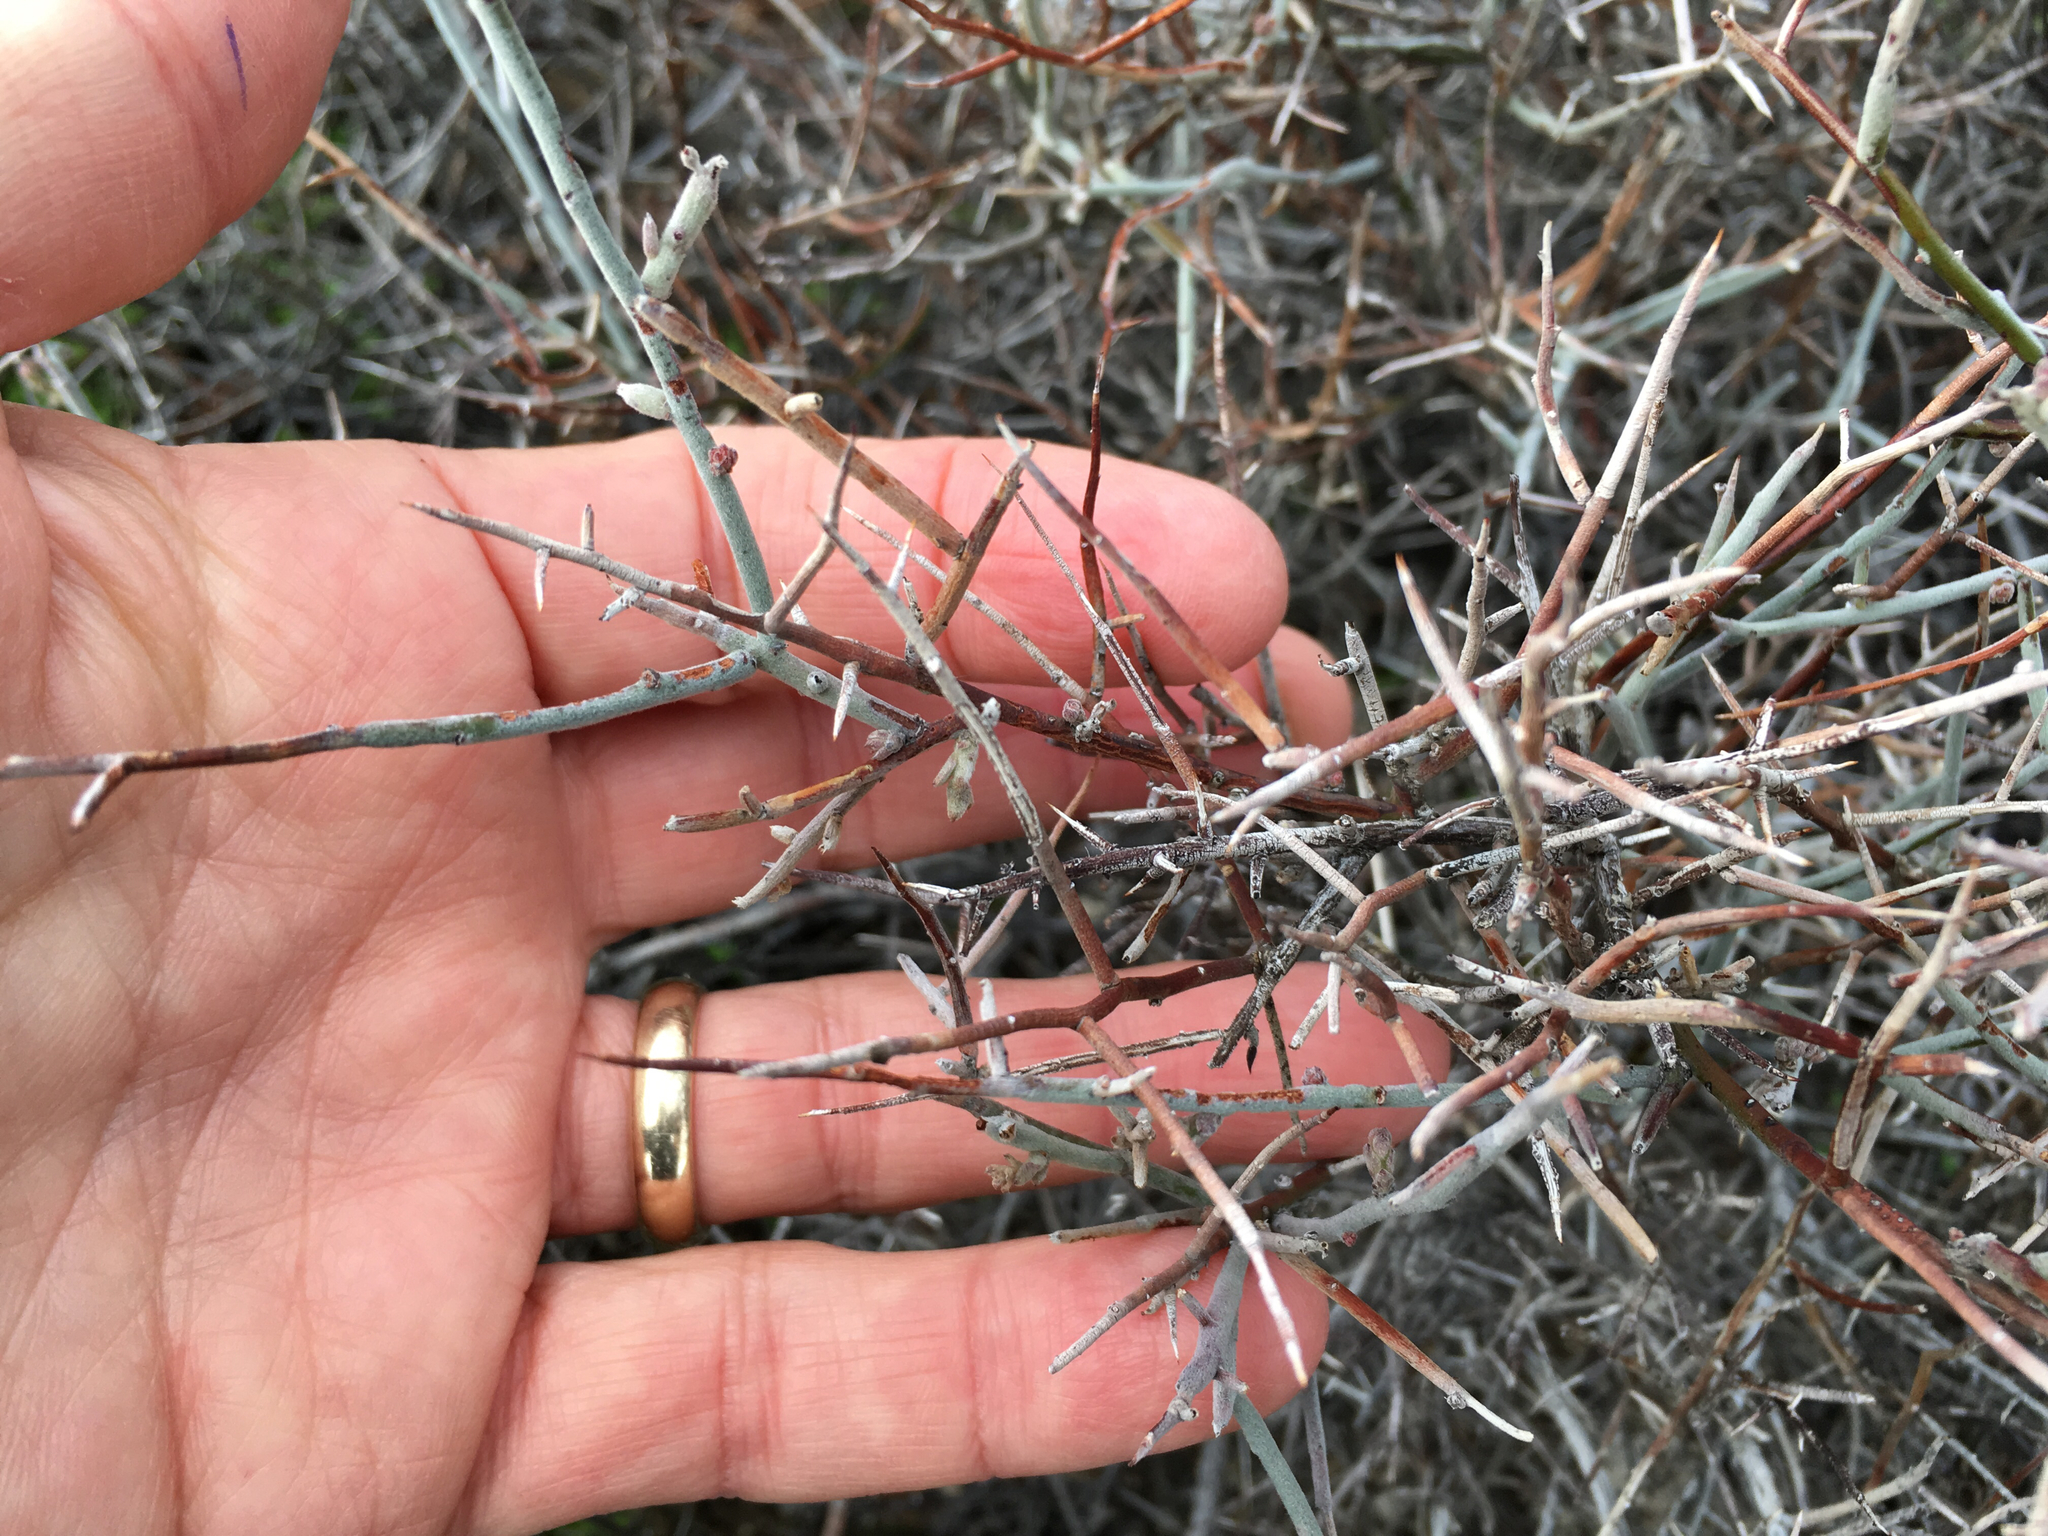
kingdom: Plantae
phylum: Tracheophyta
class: Magnoliopsida
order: Zygophyllales
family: Krameriaceae
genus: Krameria
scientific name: Krameria bicolor
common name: White ratany
